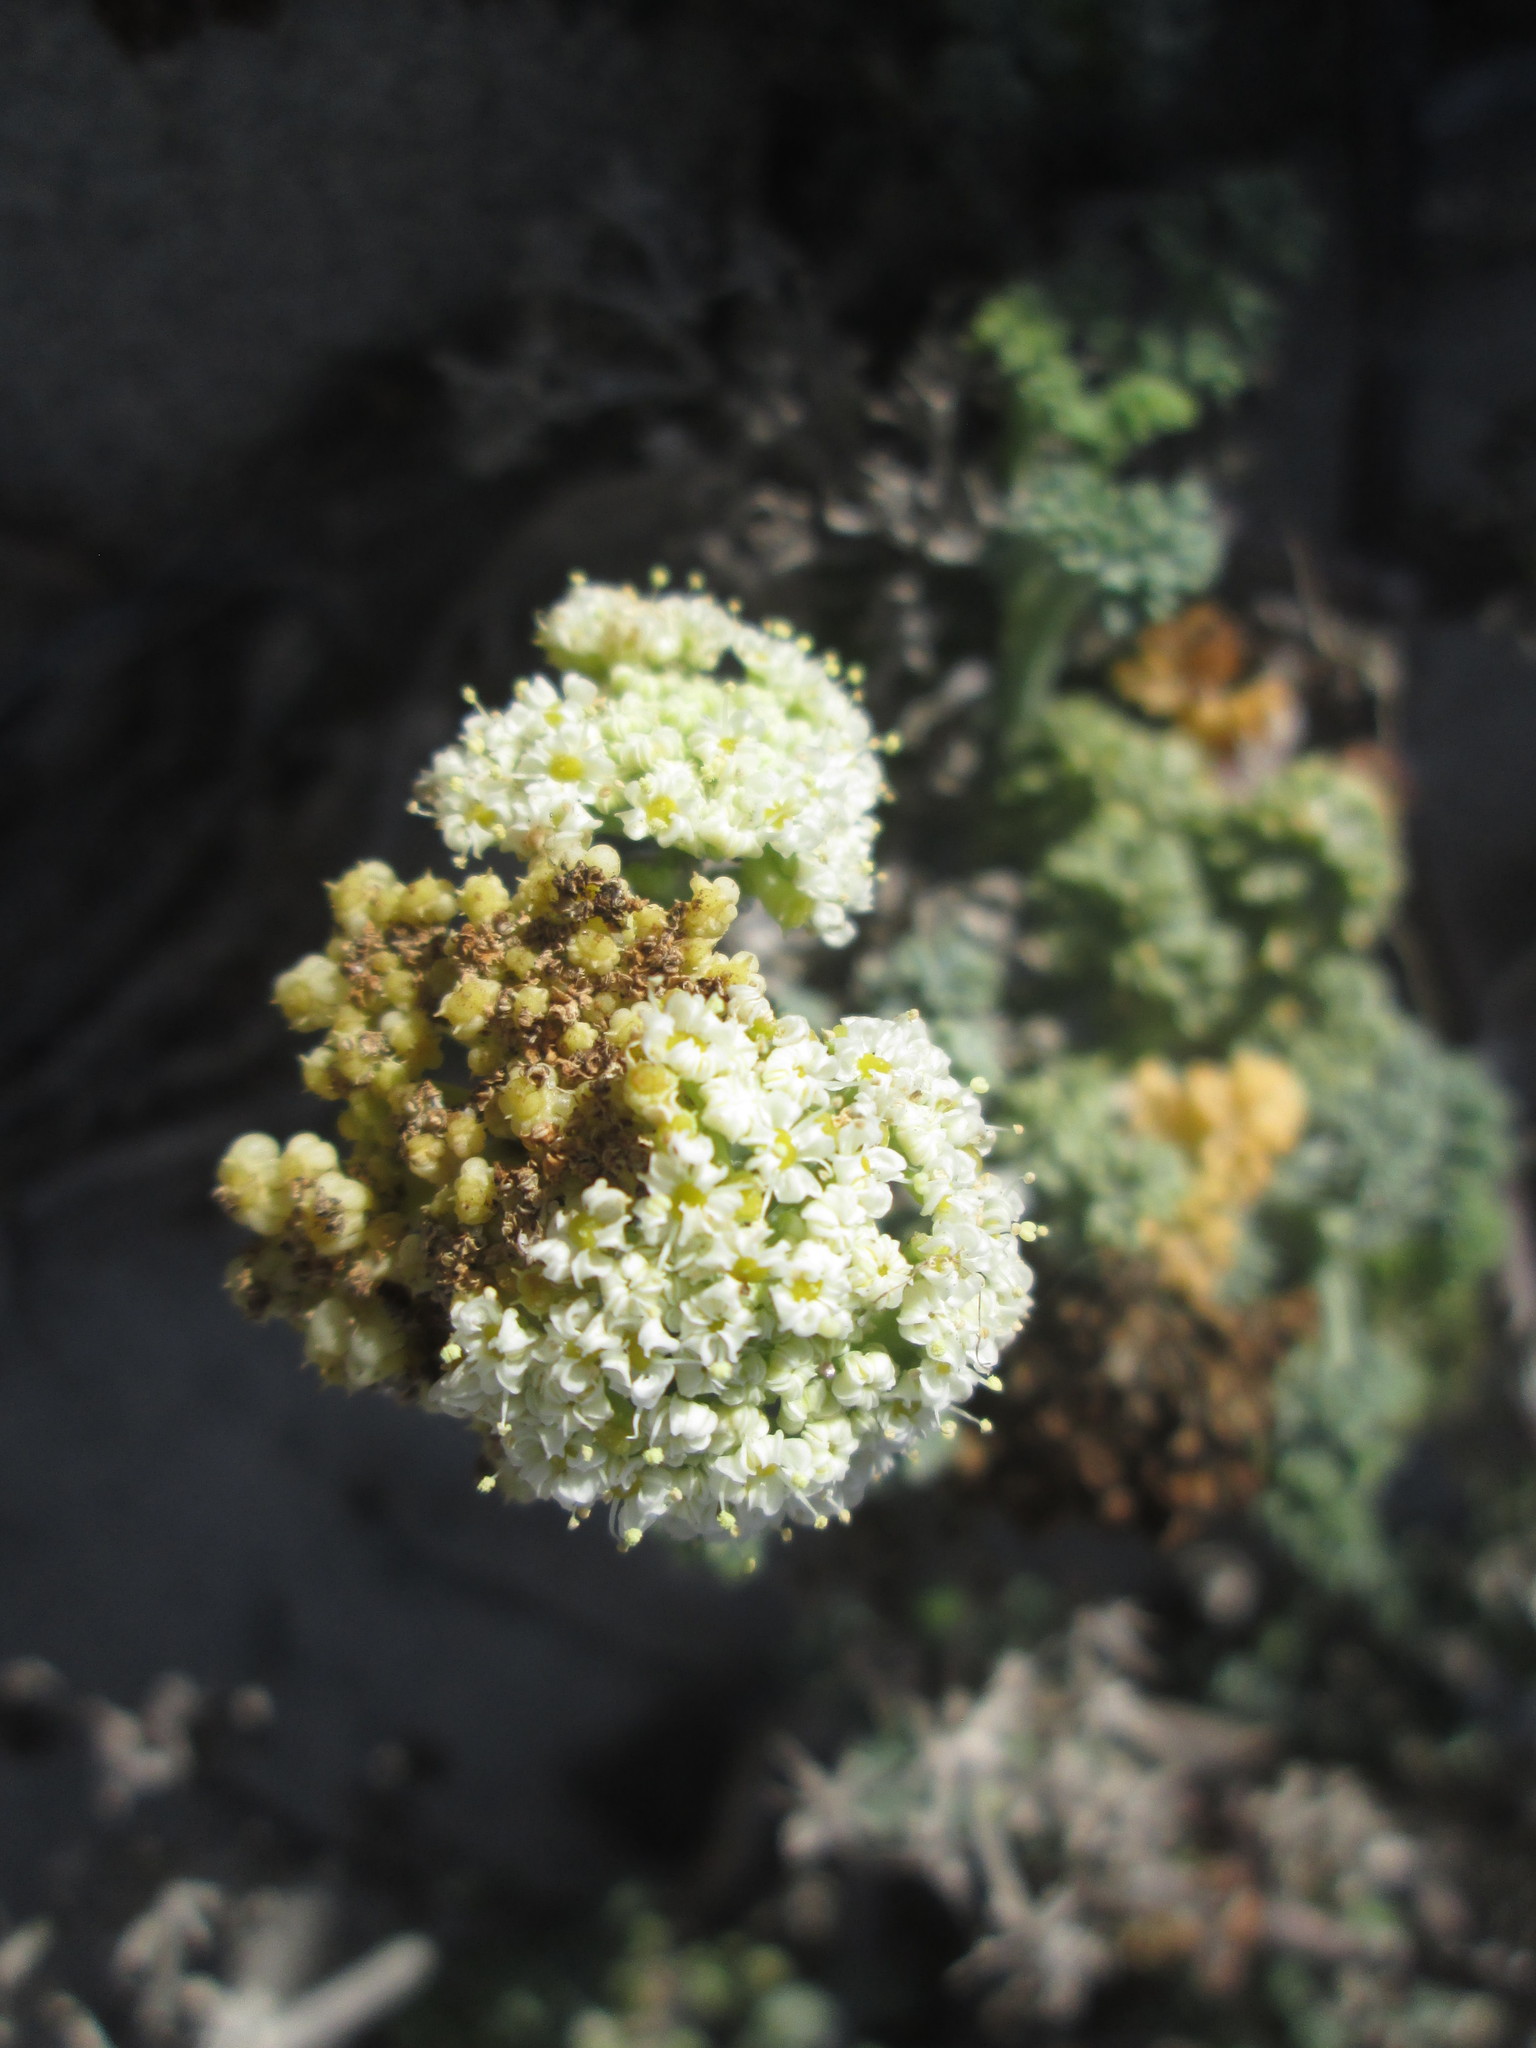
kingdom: Plantae
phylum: Tracheophyta
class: Magnoliopsida
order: Apiales
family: Apiaceae
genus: Dasispermum
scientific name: Dasispermum suffruticosum
